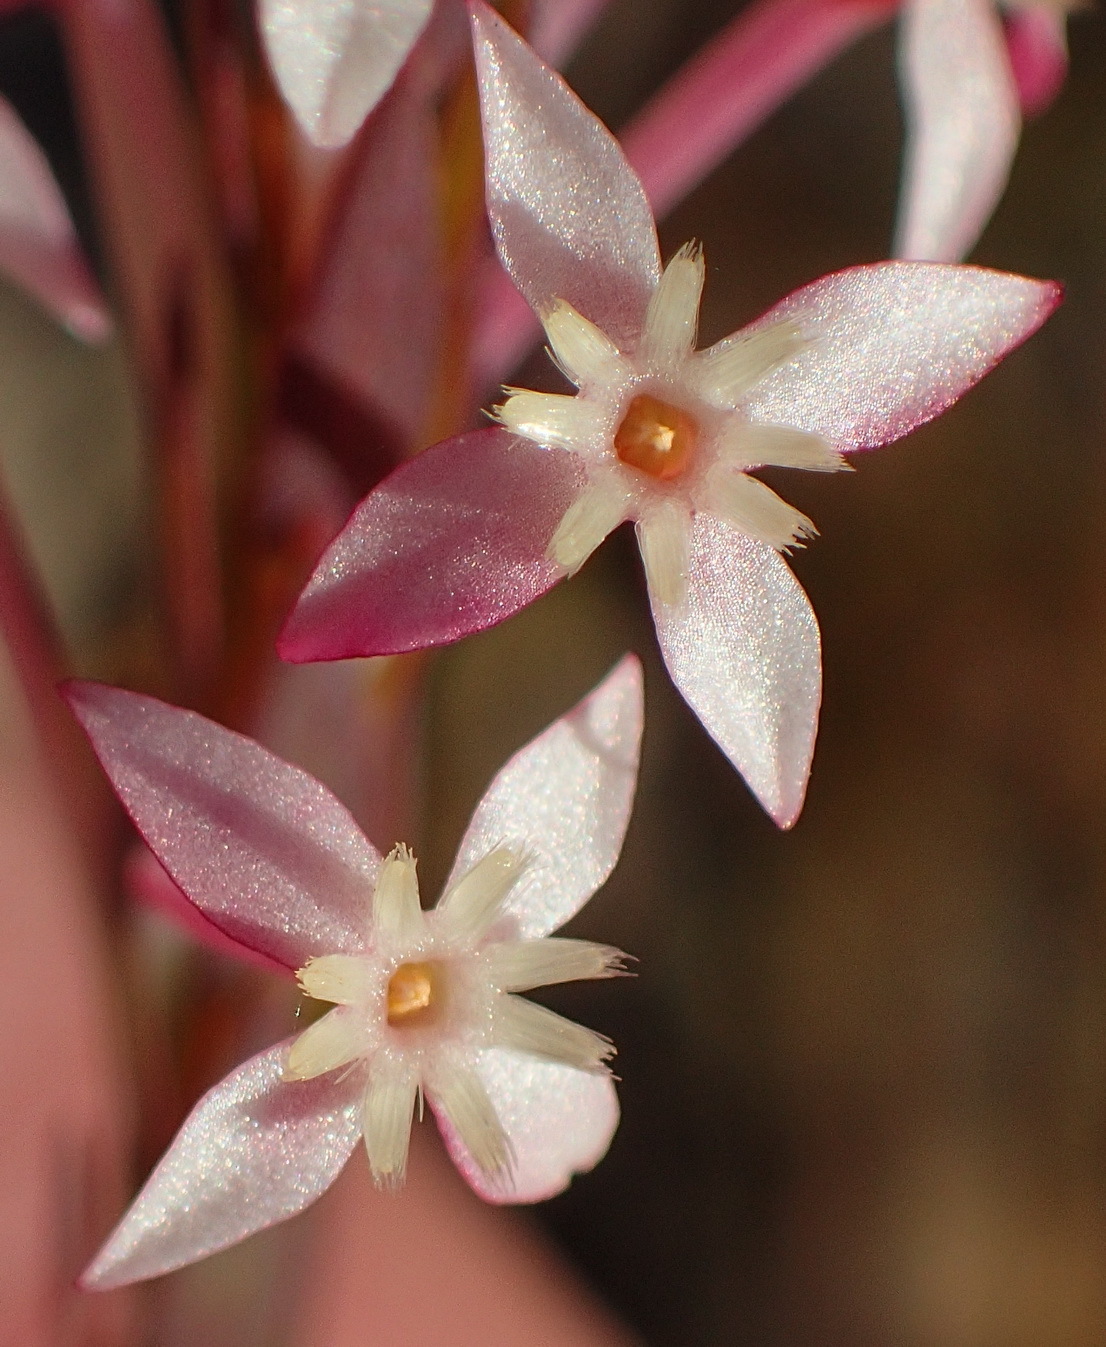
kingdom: Plantae
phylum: Tracheophyta
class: Magnoliopsida
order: Malvales
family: Thymelaeaceae
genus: Struthiola
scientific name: Struthiola myrsinites
